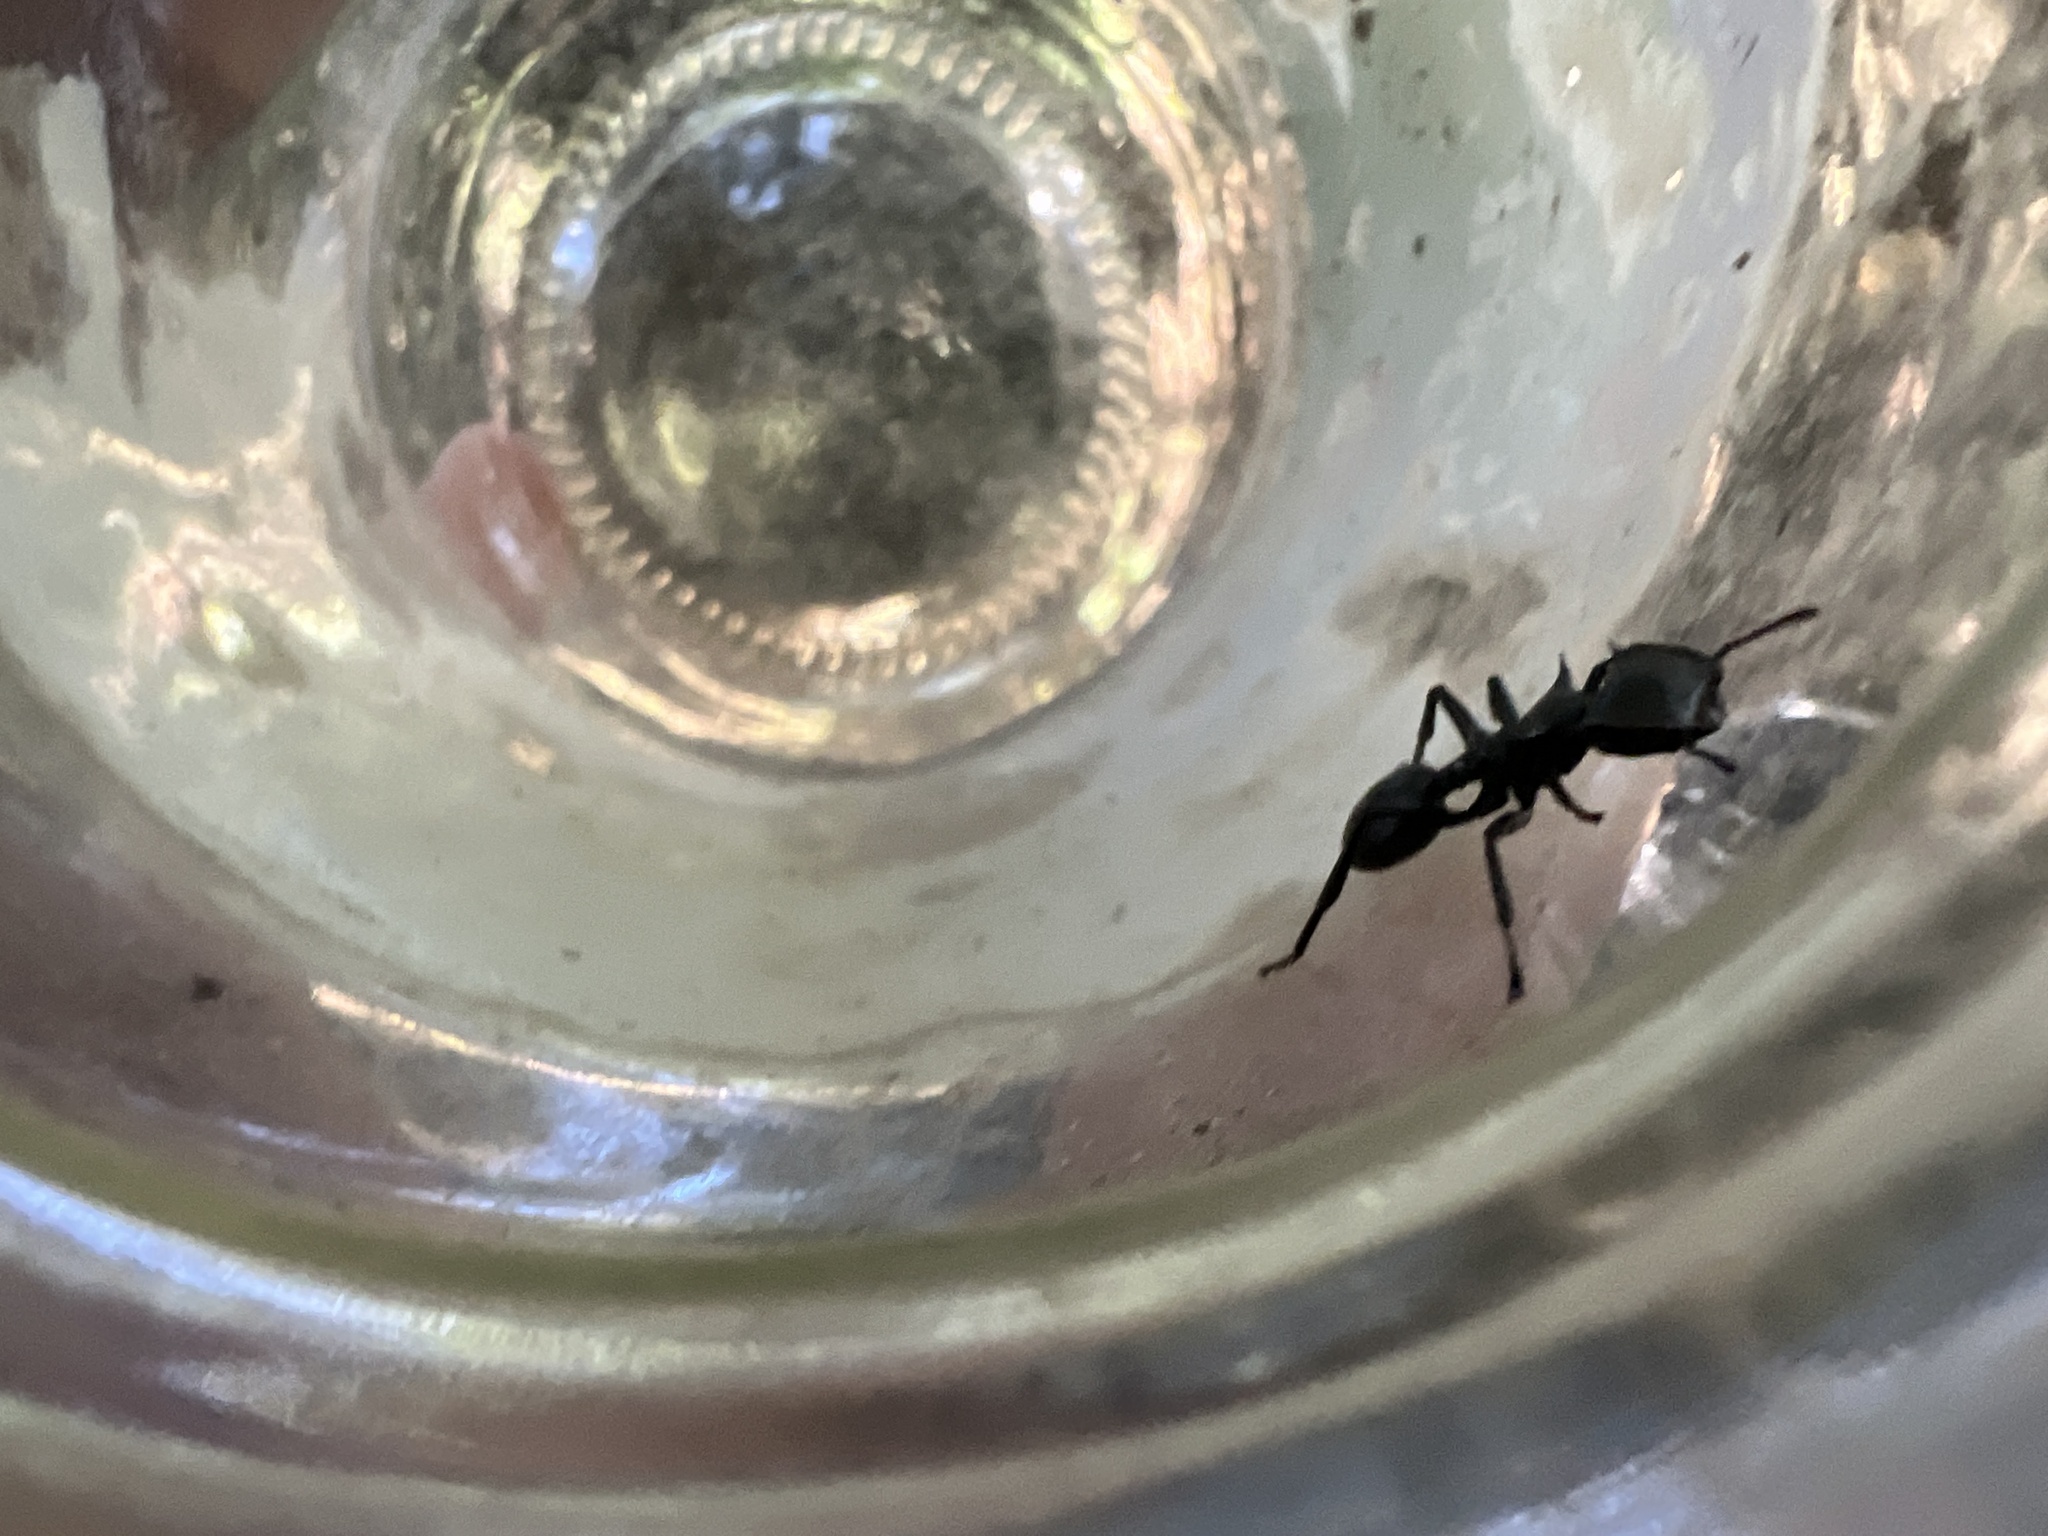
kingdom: Animalia
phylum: Arthropoda
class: Insecta
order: Hymenoptera
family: Formicidae
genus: Cephalotes
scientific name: Cephalotes atratus
